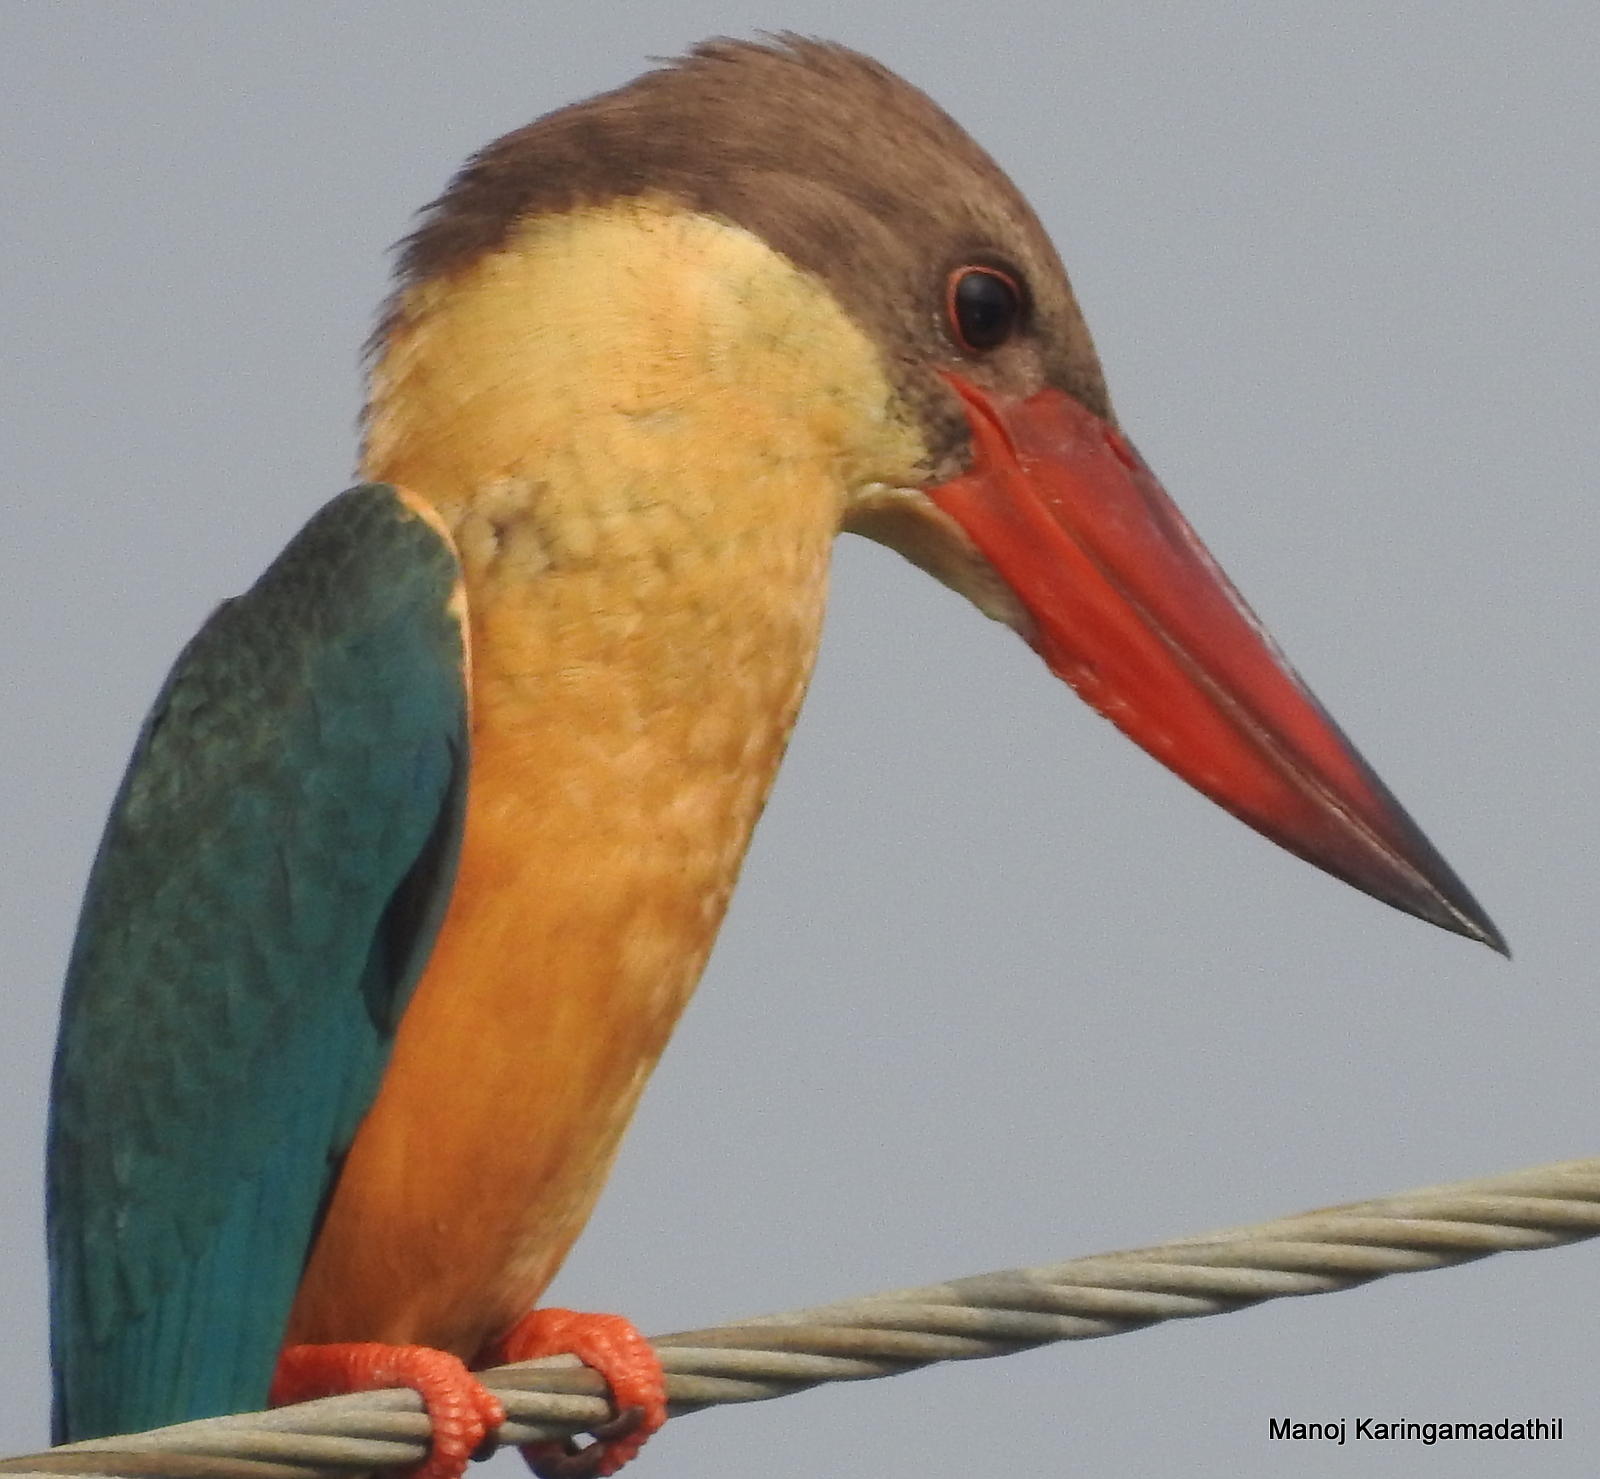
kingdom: Animalia
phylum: Chordata
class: Aves
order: Coraciiformes
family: Alcedinidae
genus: Pelargopsis
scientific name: Pelargopsis capensis
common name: Stork-billed kingfisher
